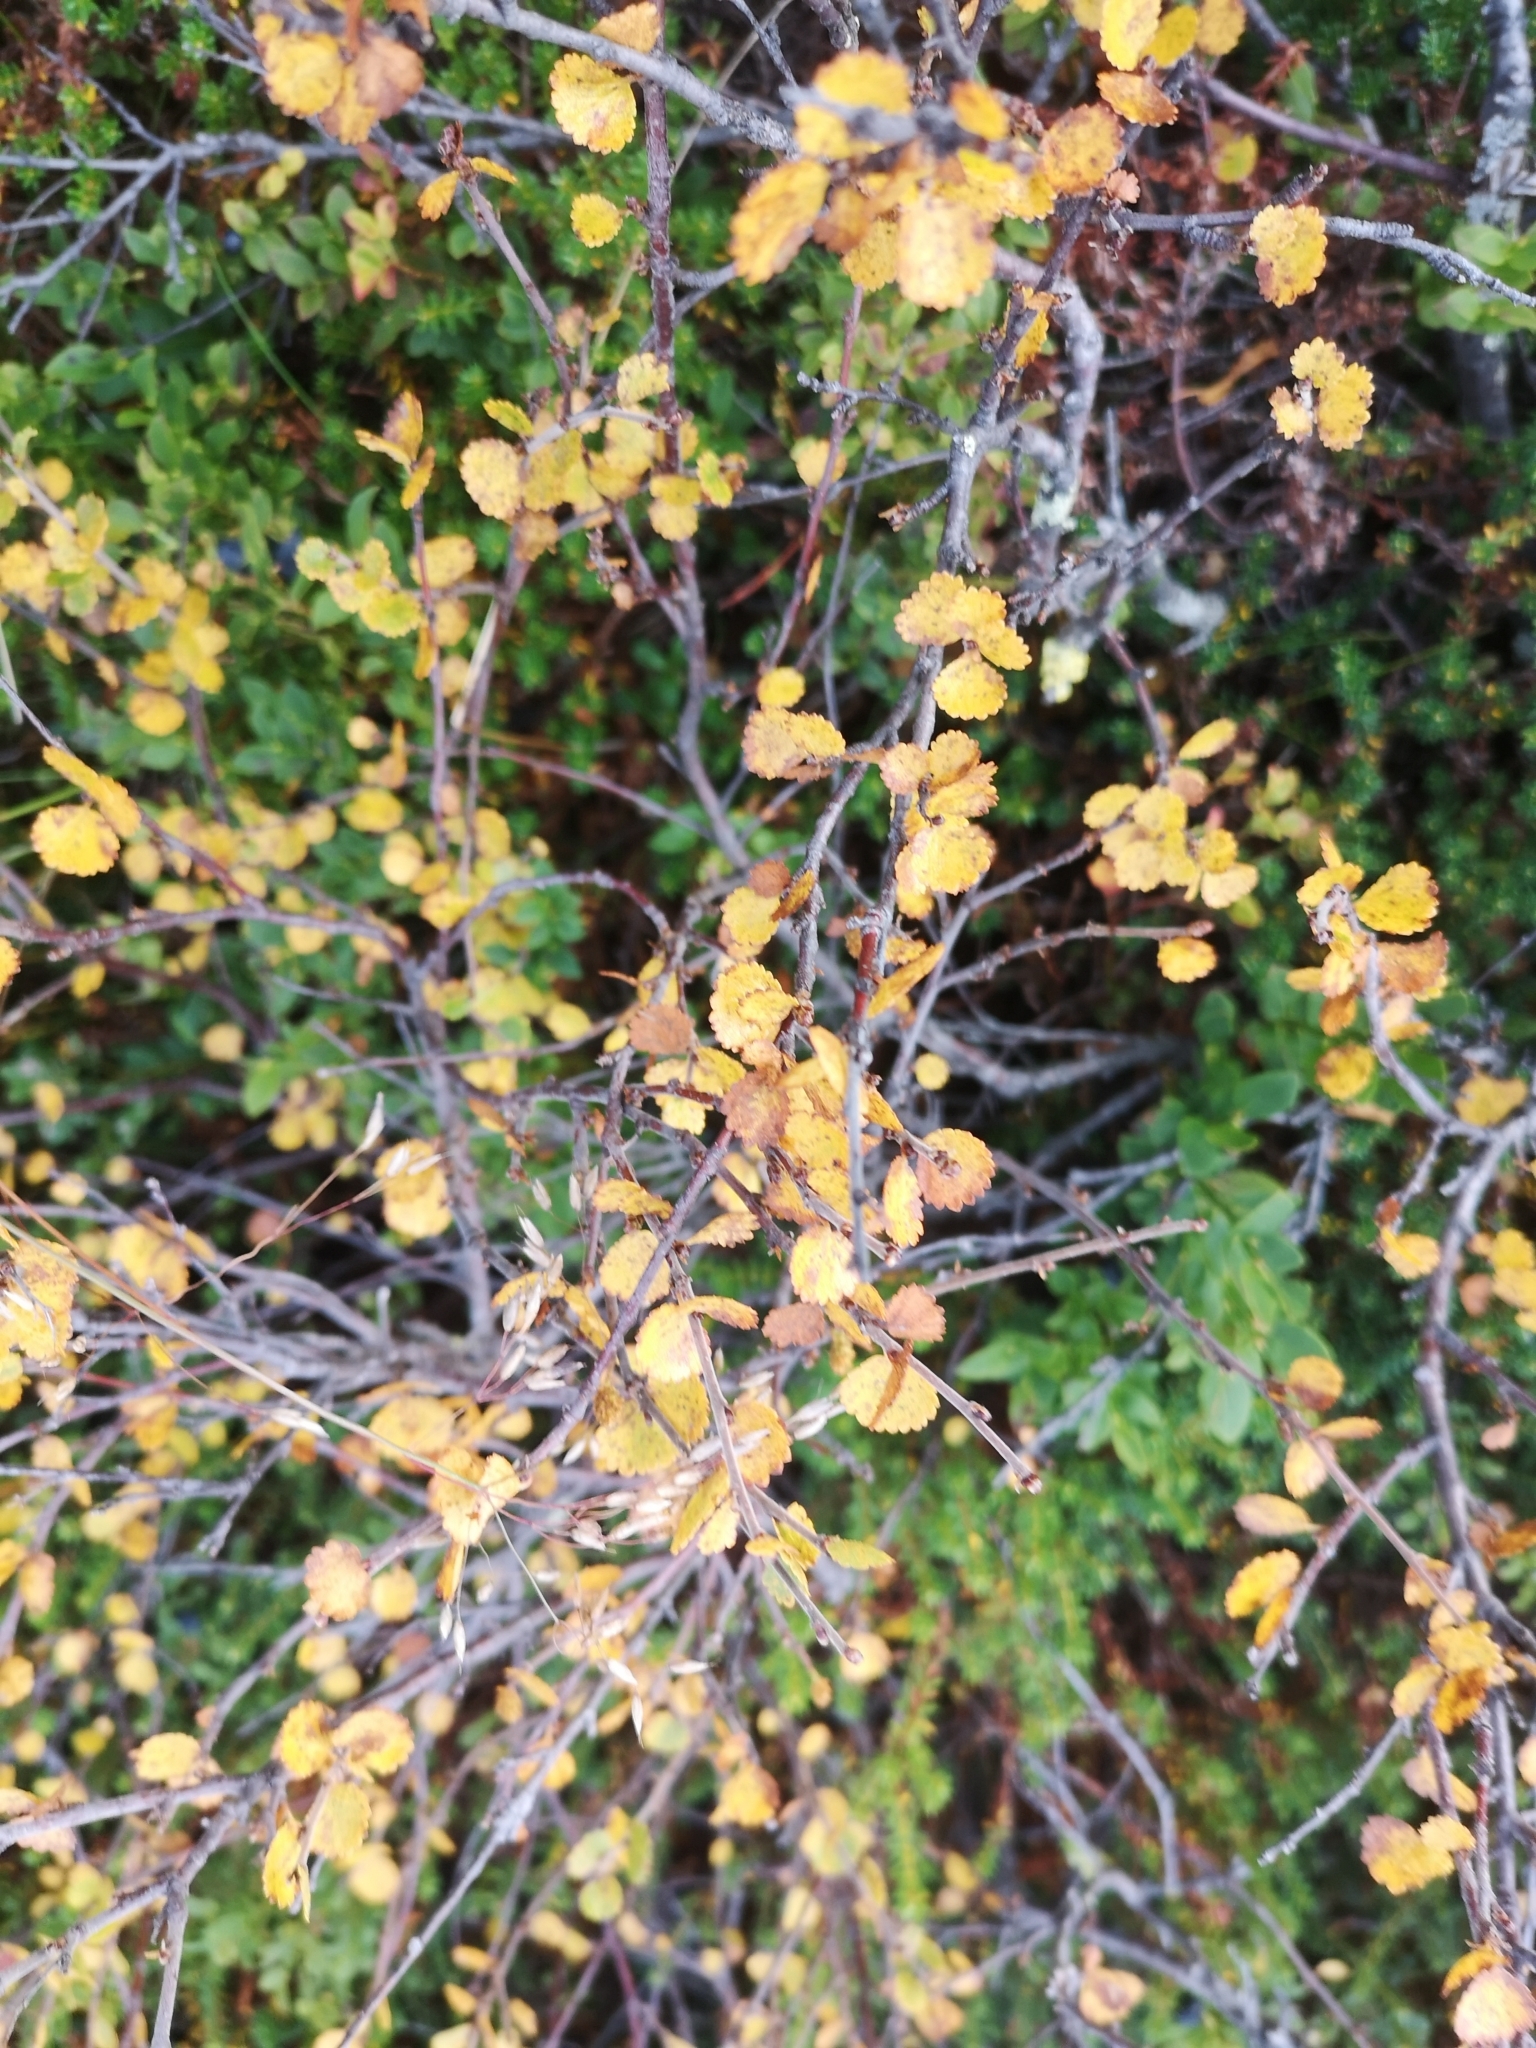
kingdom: Plantae
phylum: Tracheophyta
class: Magnoliopsida
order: Fagales
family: Betulaceae
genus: Betula
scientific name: Betula nana
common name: Arctic dwarf birch
